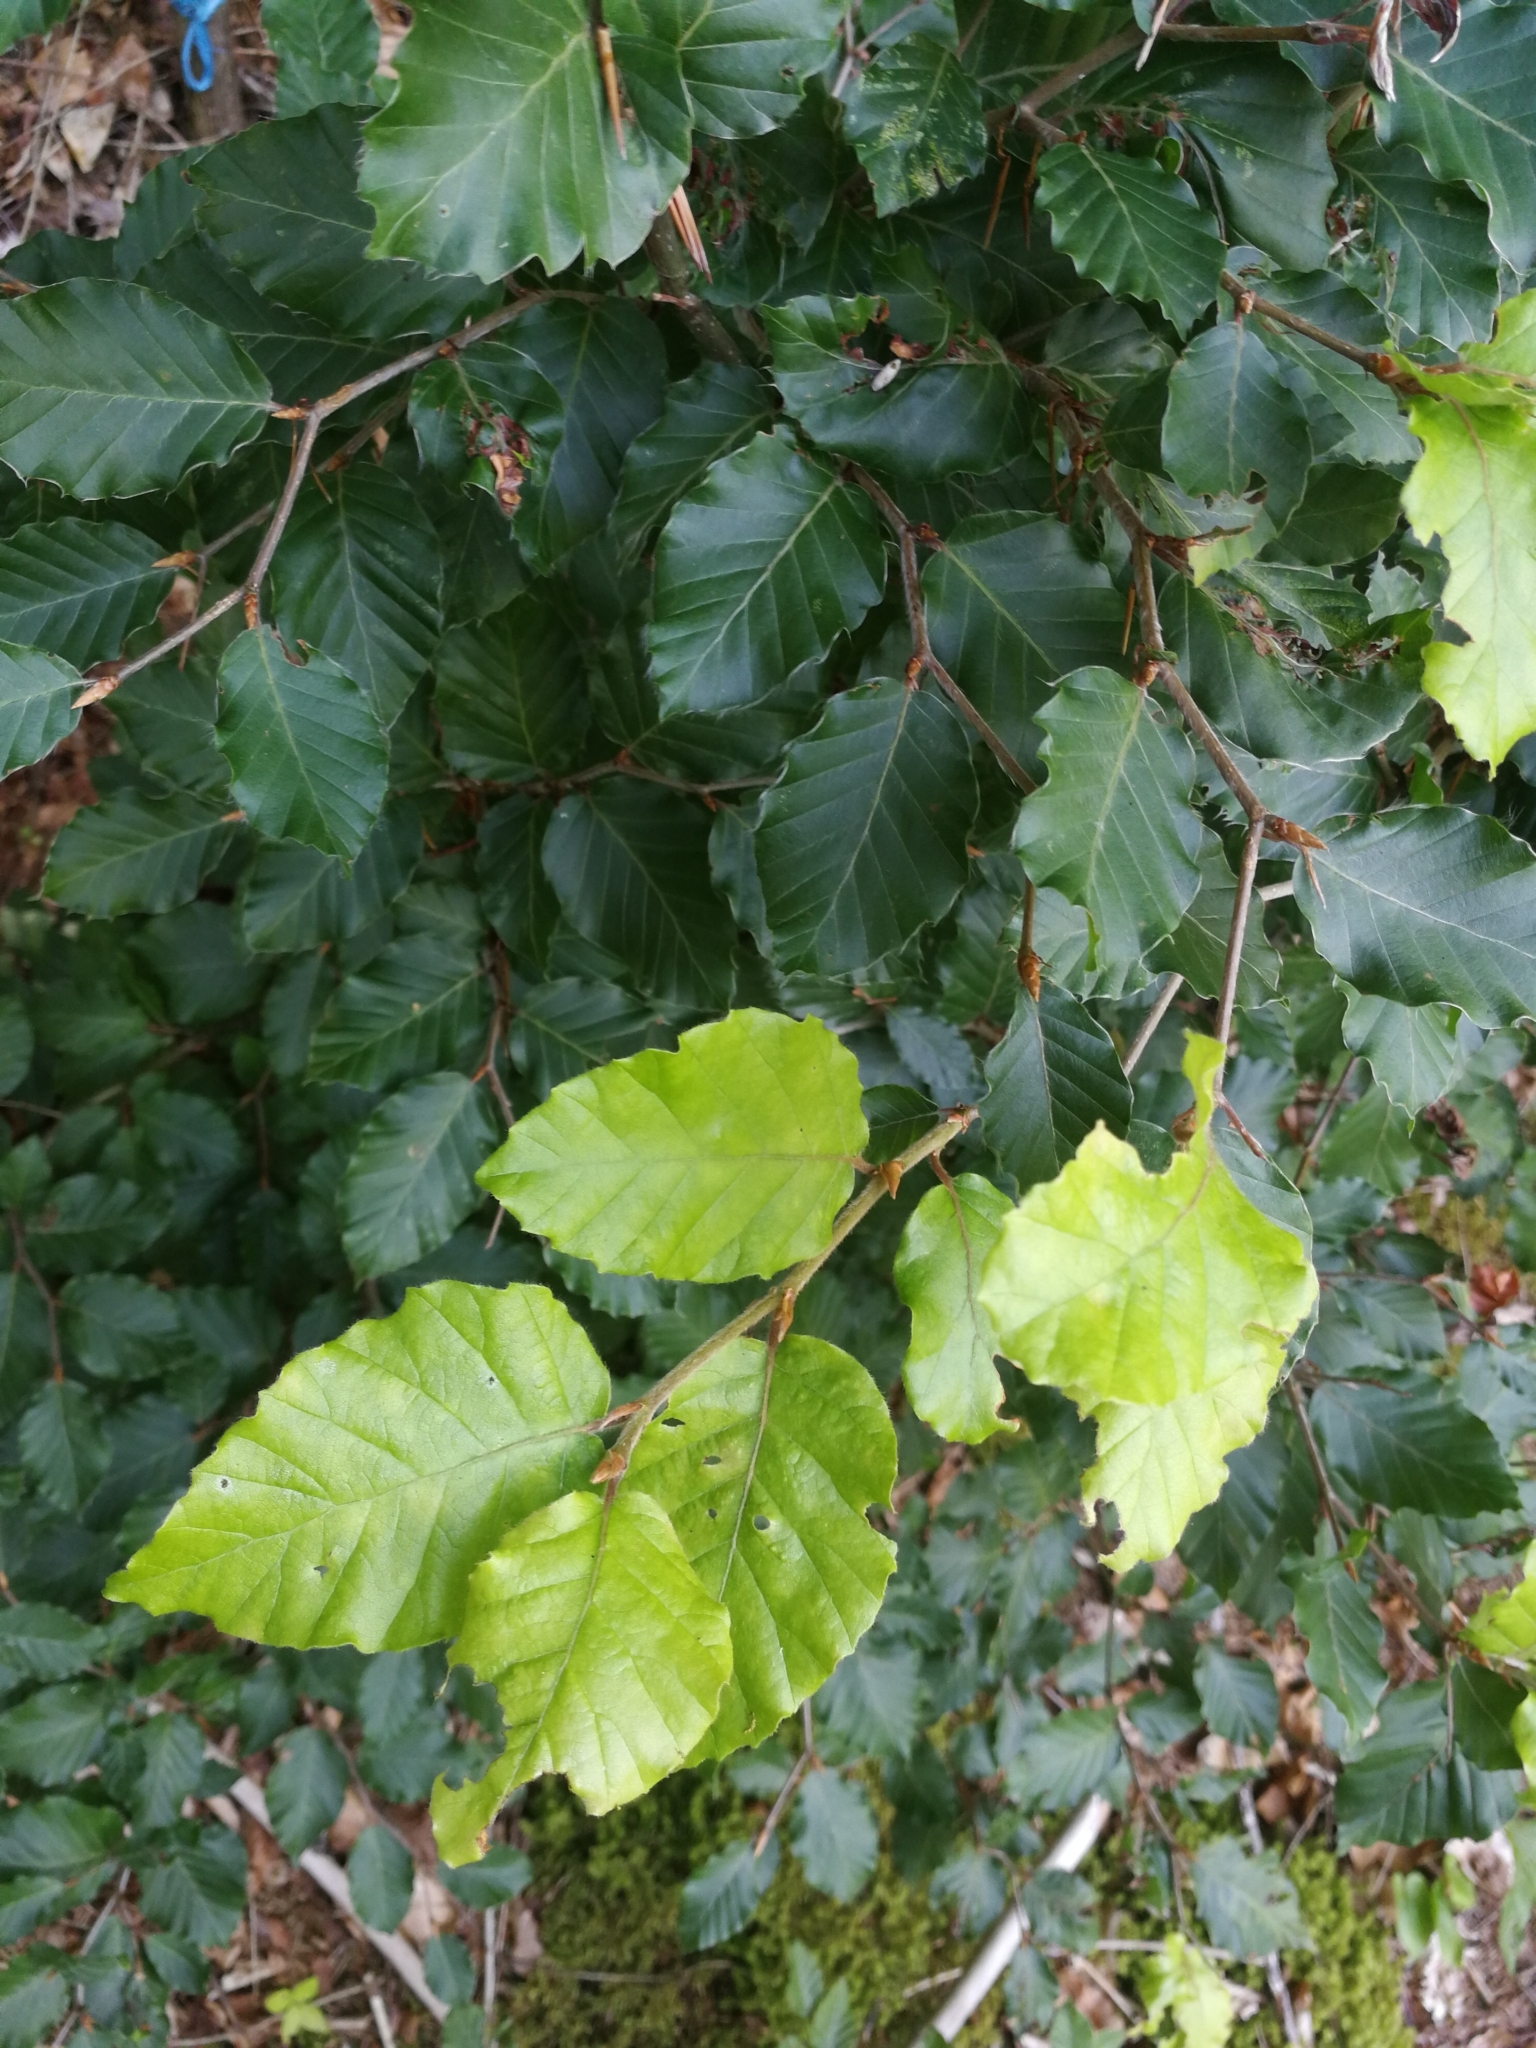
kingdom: Plantae
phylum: Tracheophyta
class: Magnoliopsida
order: Fagales
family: Fagaceae
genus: Fagus
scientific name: Fagus sylvatica
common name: Beech
